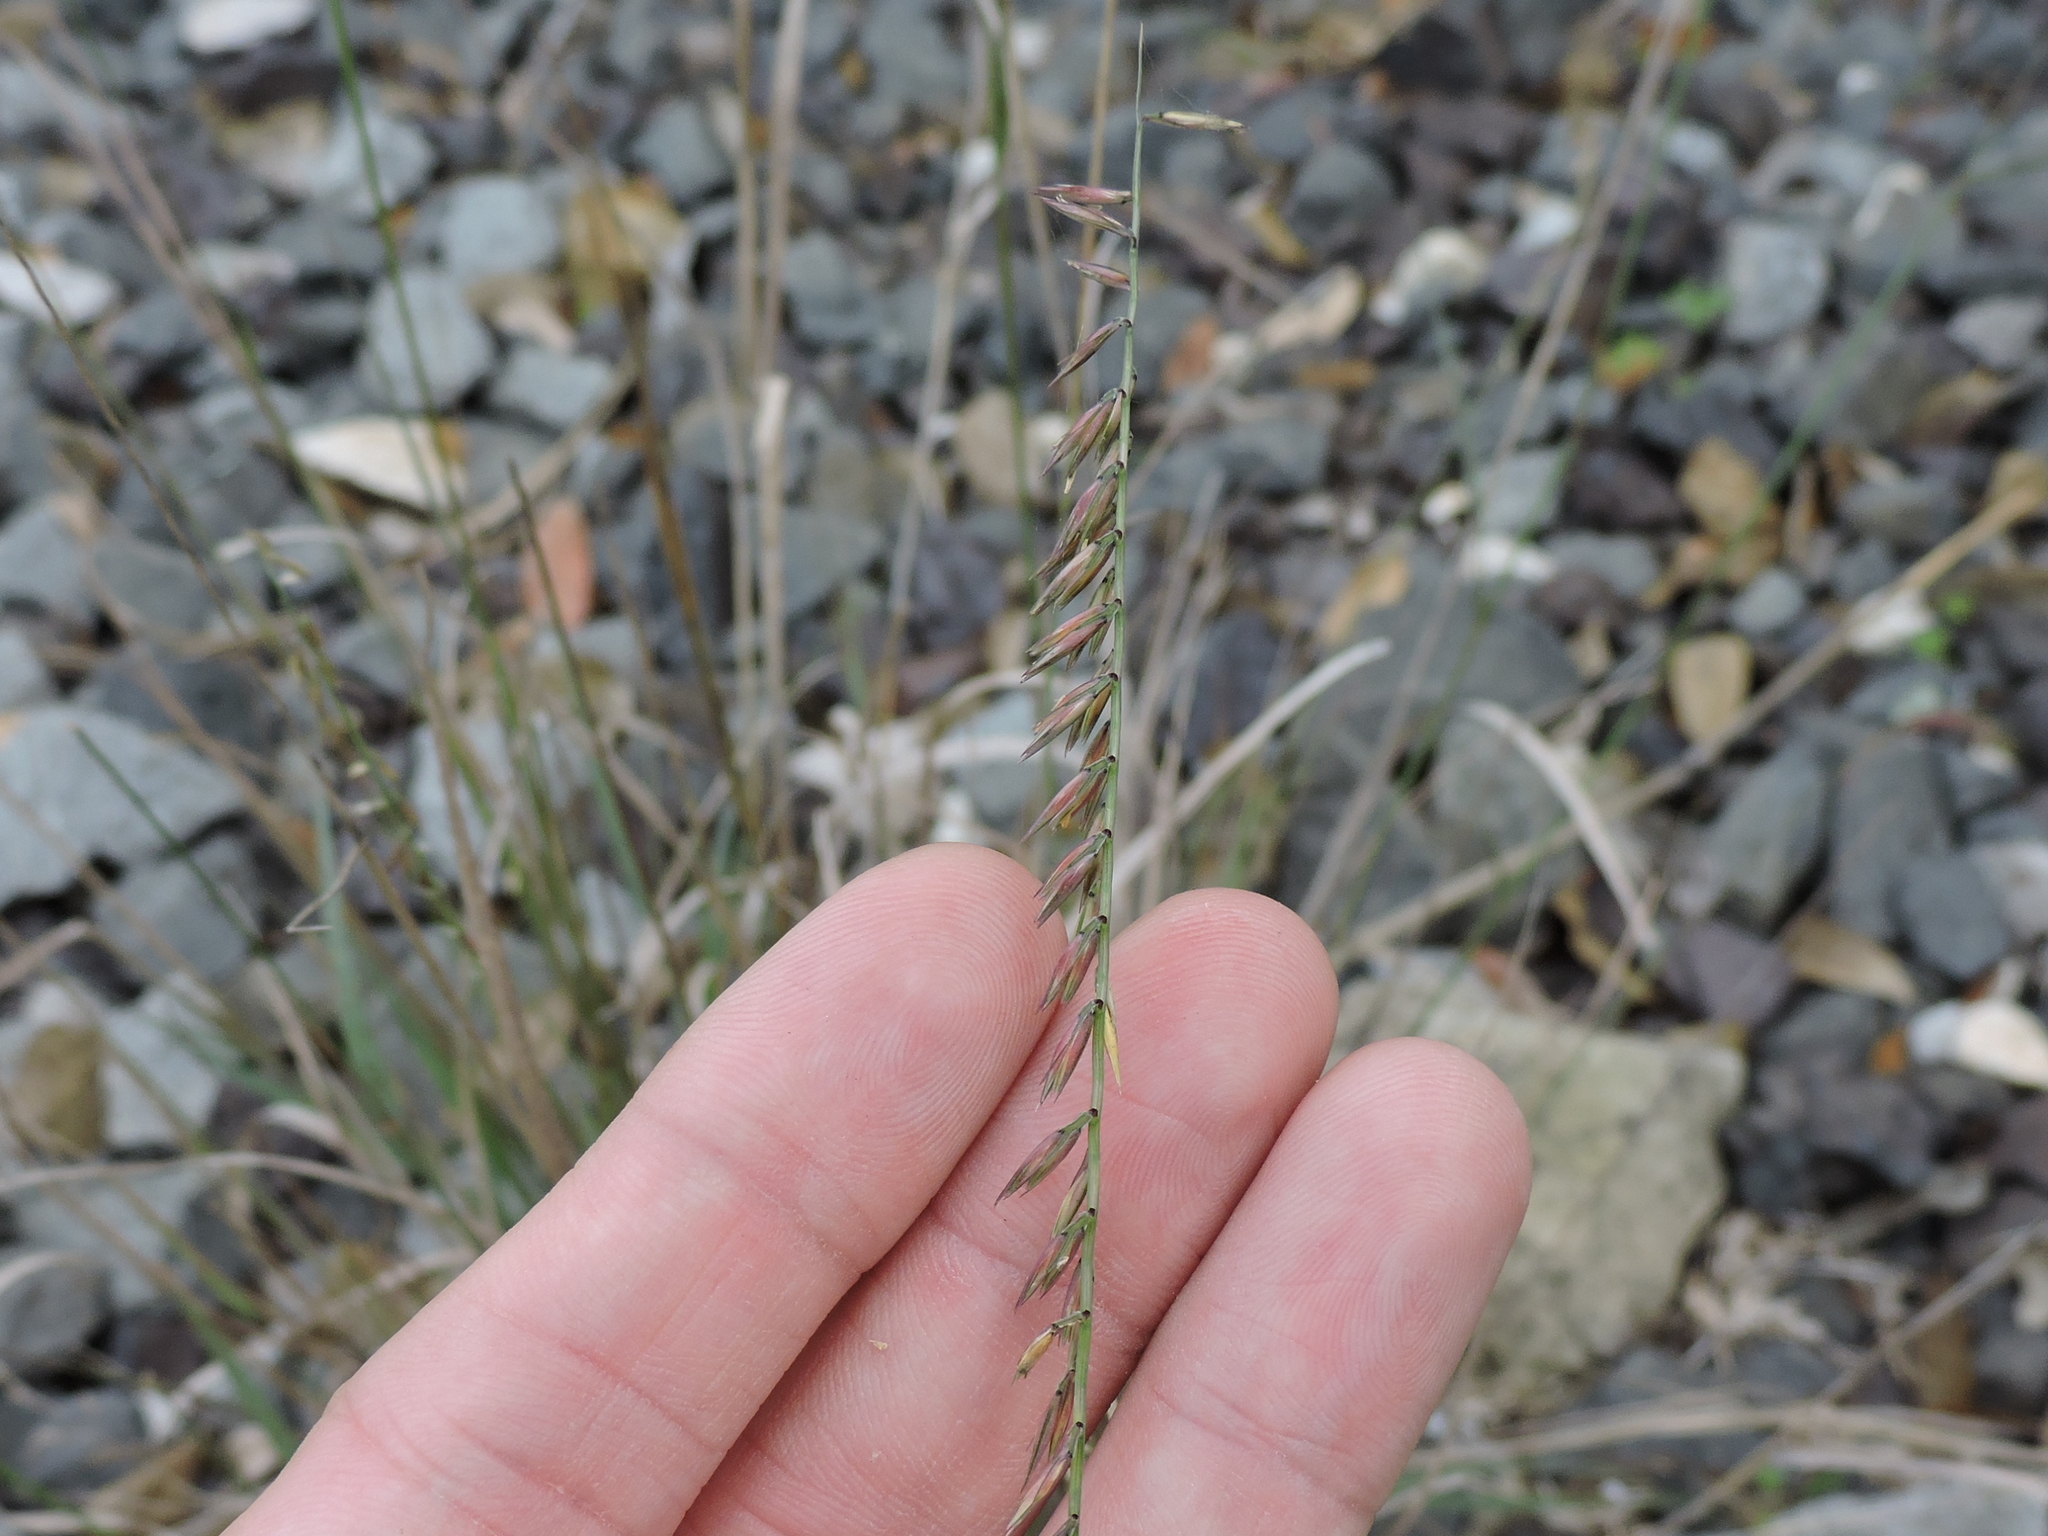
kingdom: Plantae
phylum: Tracheophyta
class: Liliopsida
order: Poales
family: Poaceae
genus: Bouteloua
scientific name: Bouteloua curtipendula
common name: Side-oats grama
